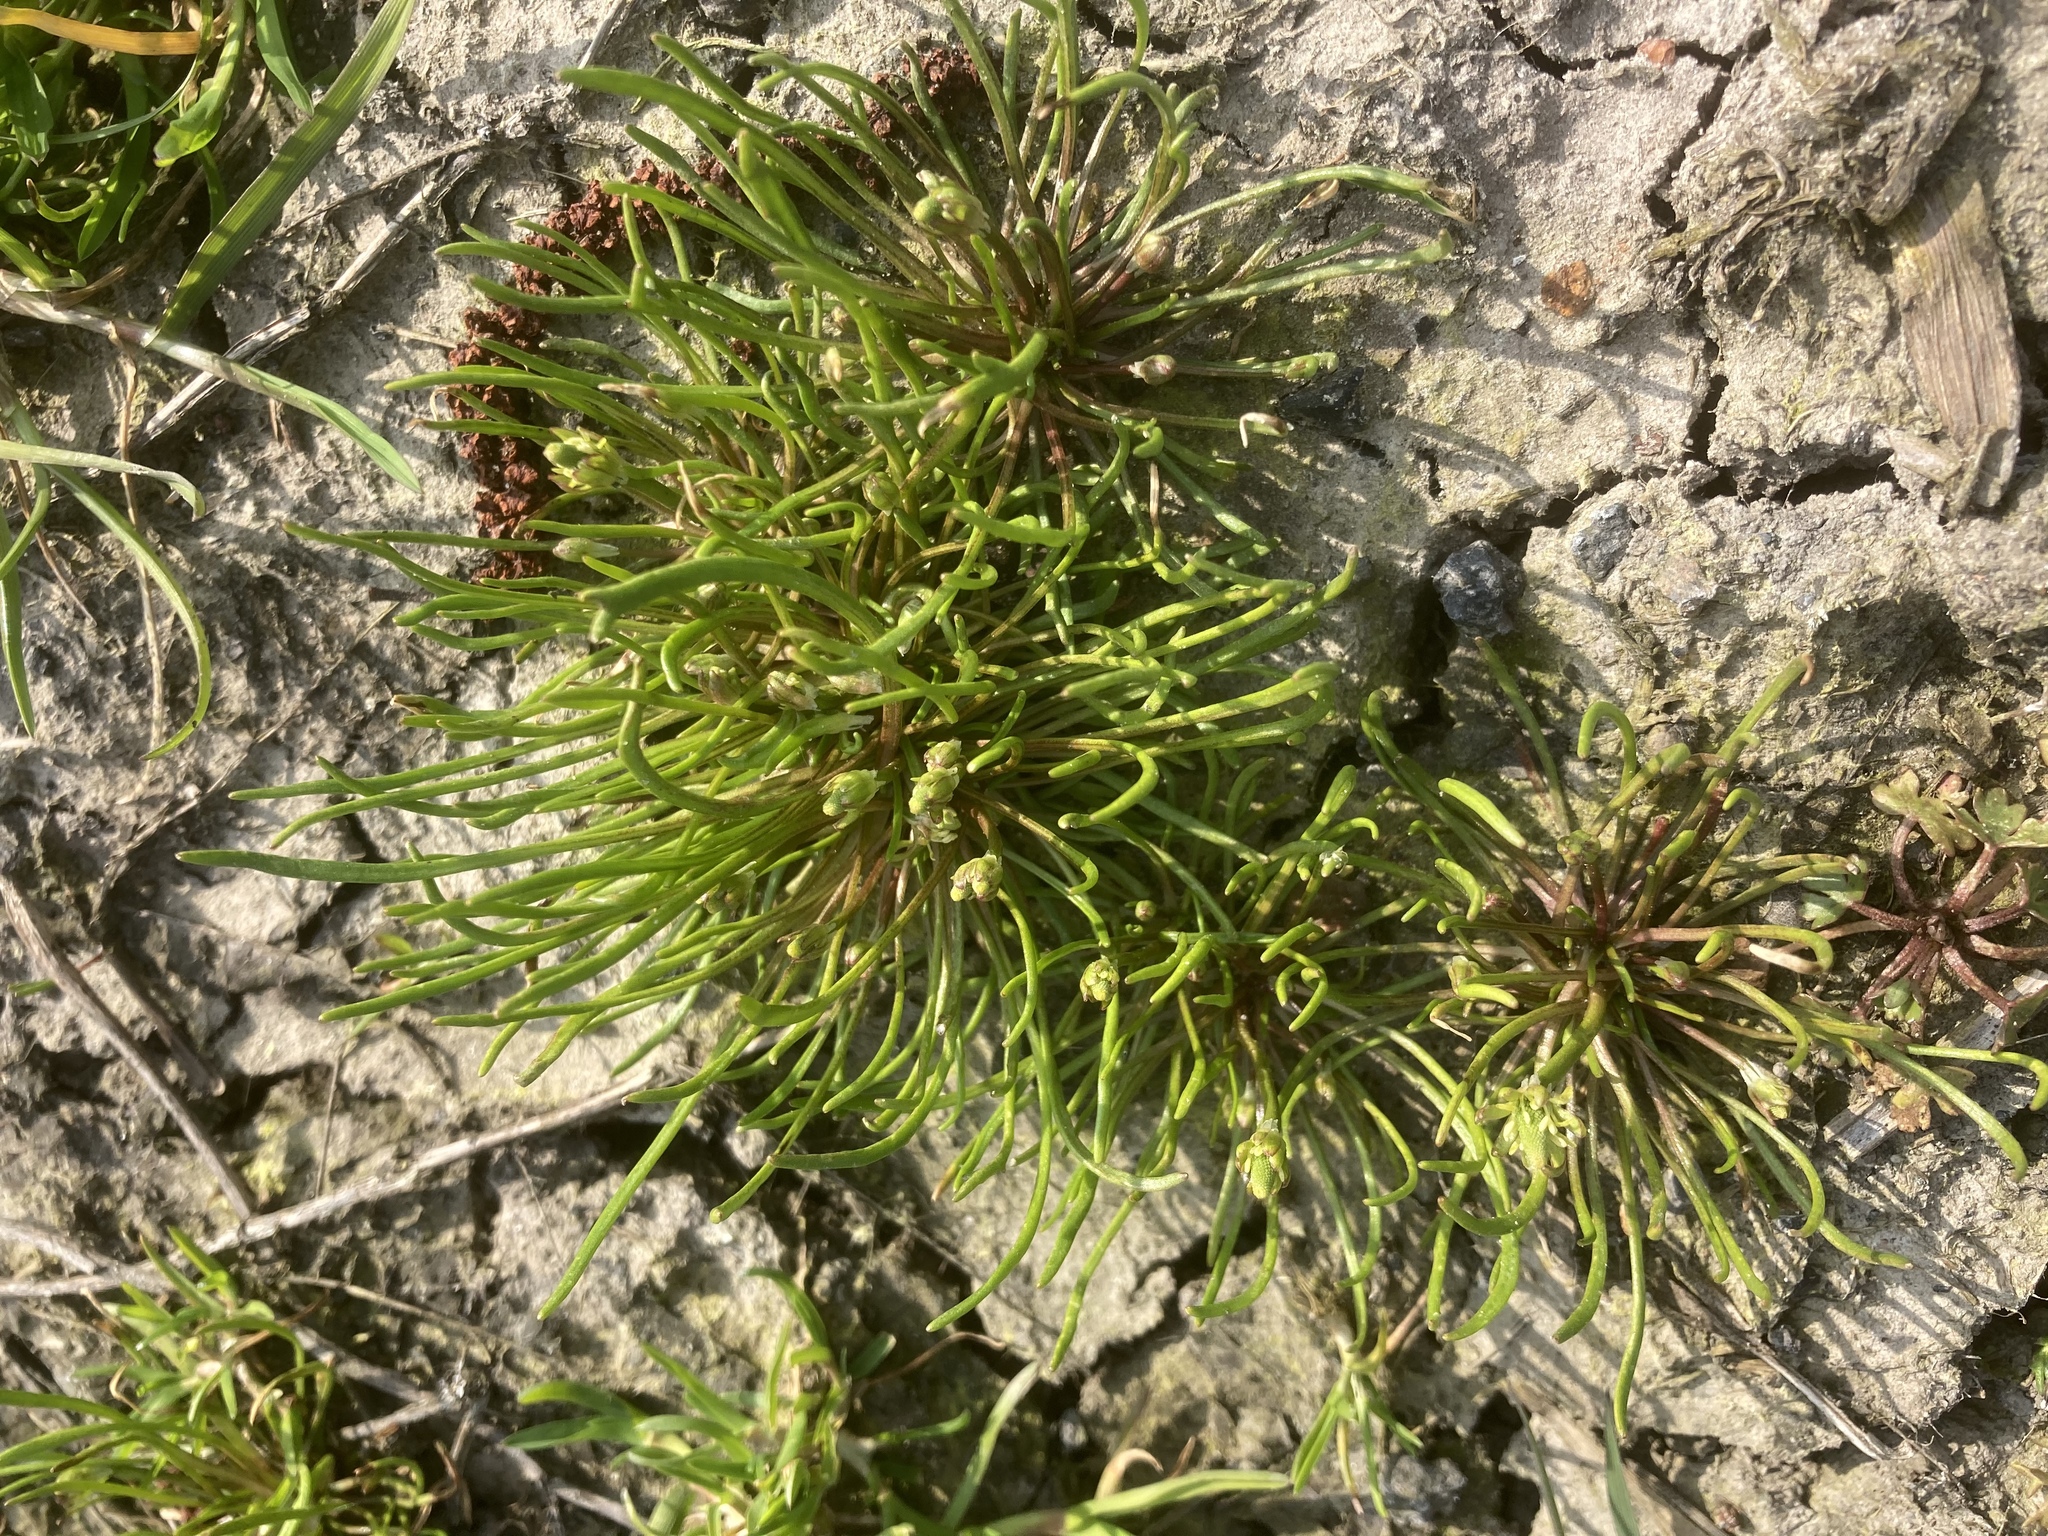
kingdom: Plantae
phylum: Tracheophyta
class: Magnoliopsida
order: Ranunculales
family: Ranunculaceae
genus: Myosurus
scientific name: Myosurus minimus
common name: Mousetail
